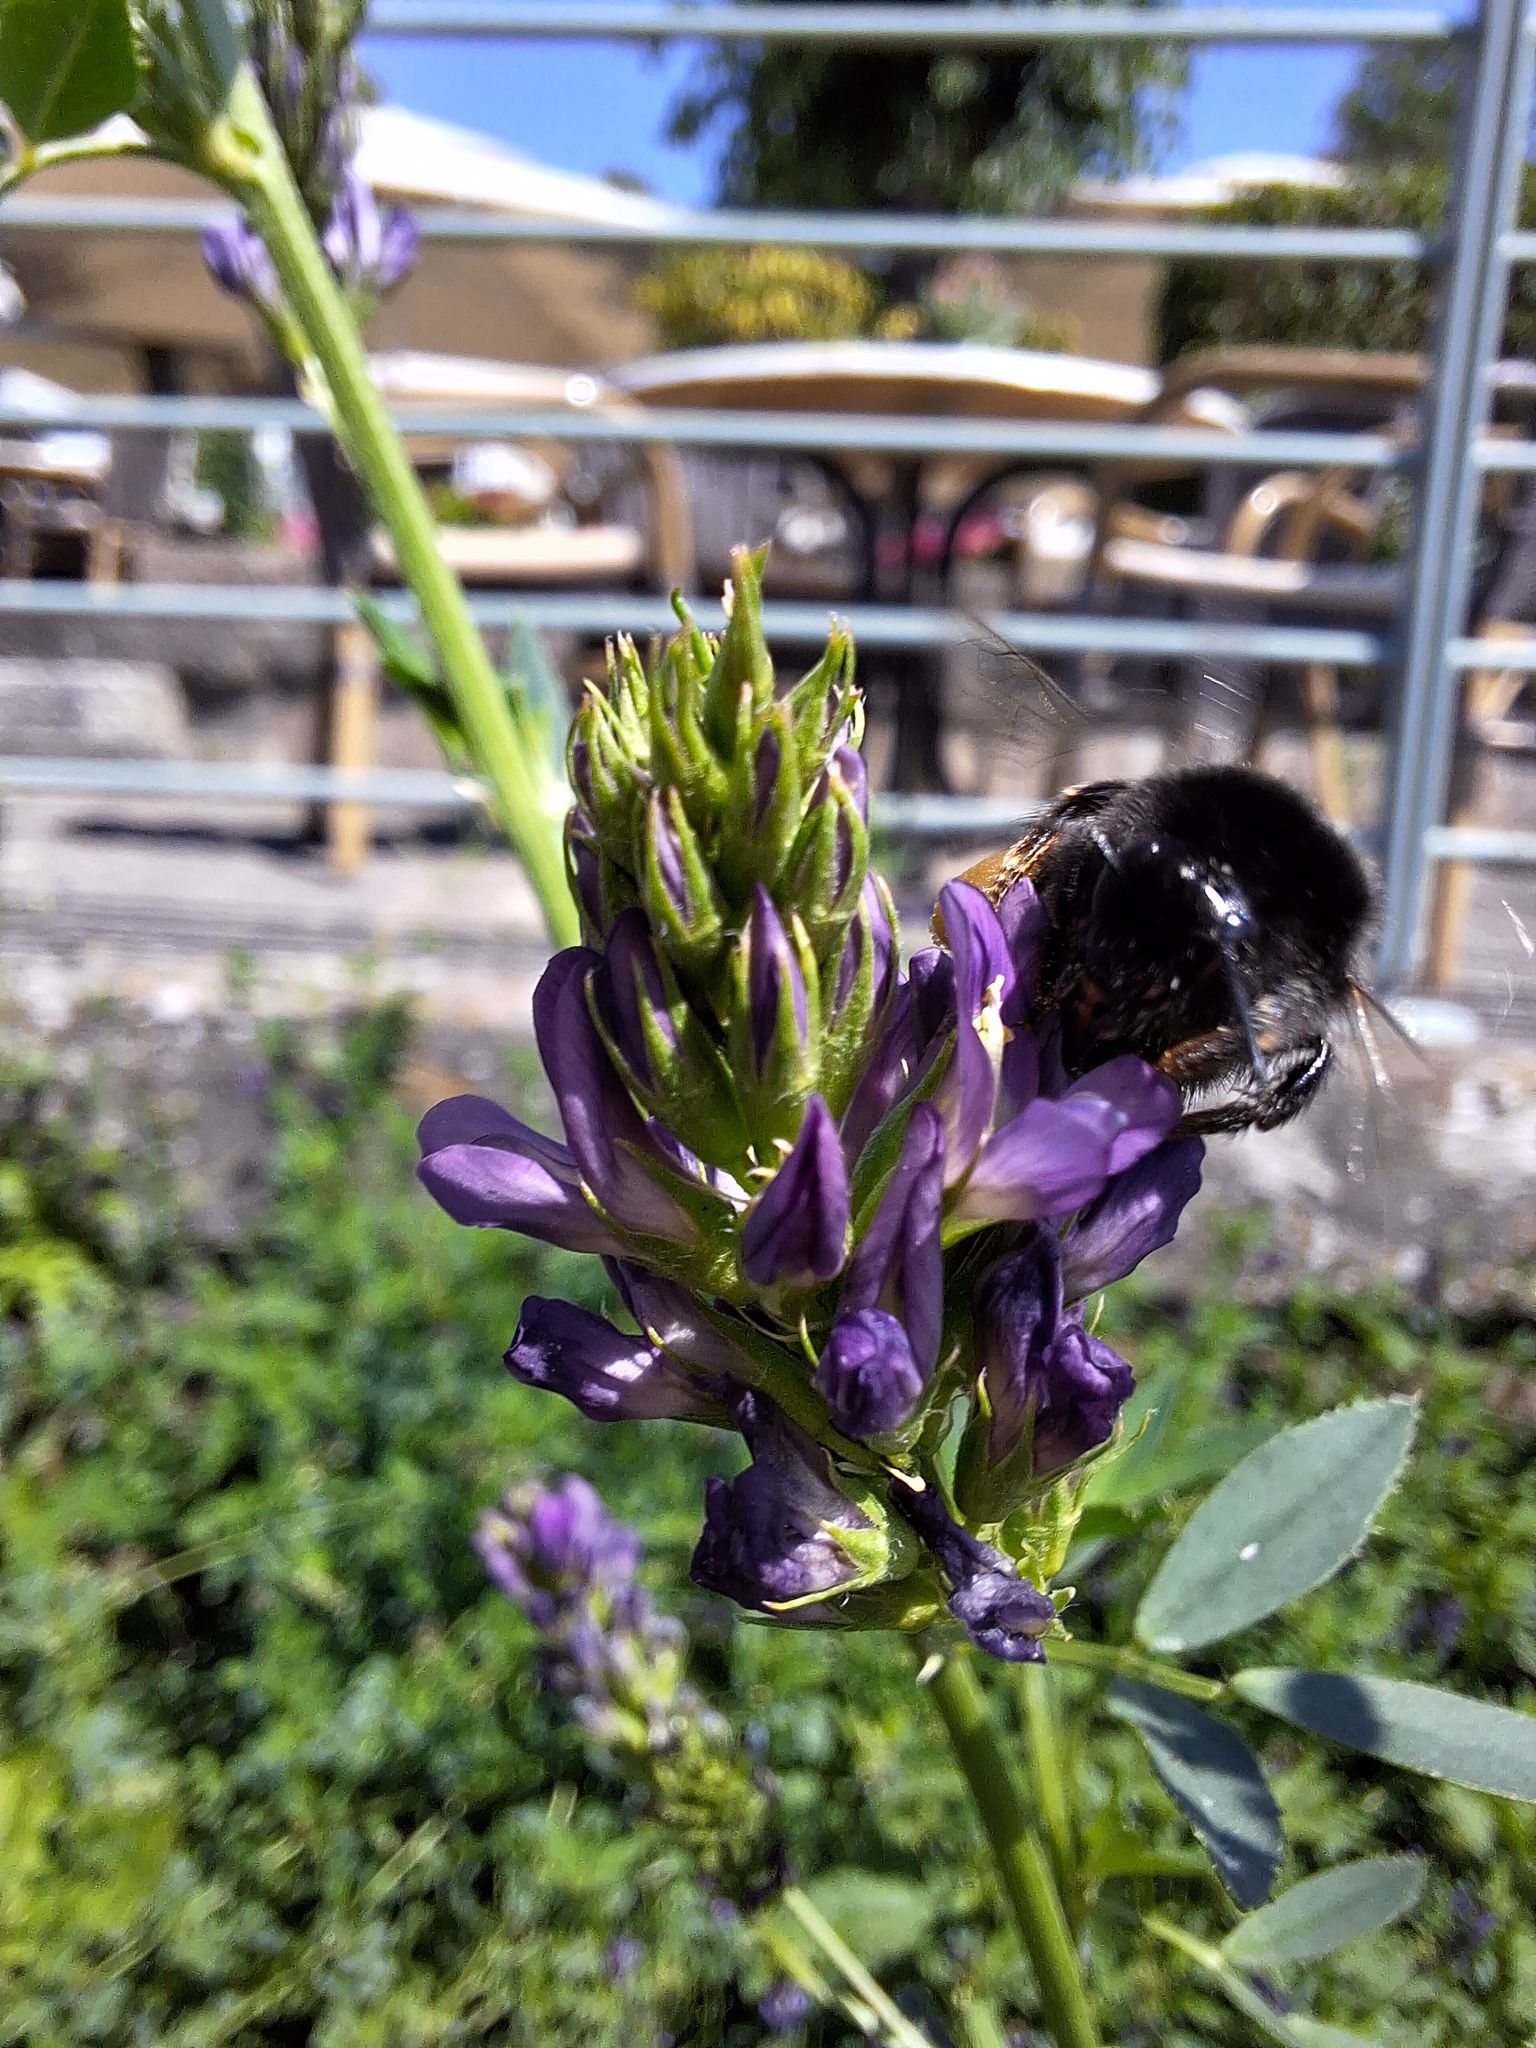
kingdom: Animalia
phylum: Arthropoda
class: Insecta
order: Hymenoptera
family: Apidae
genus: Bombus
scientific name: Bombus lapidarius
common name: Large red-tailed humble-bee
